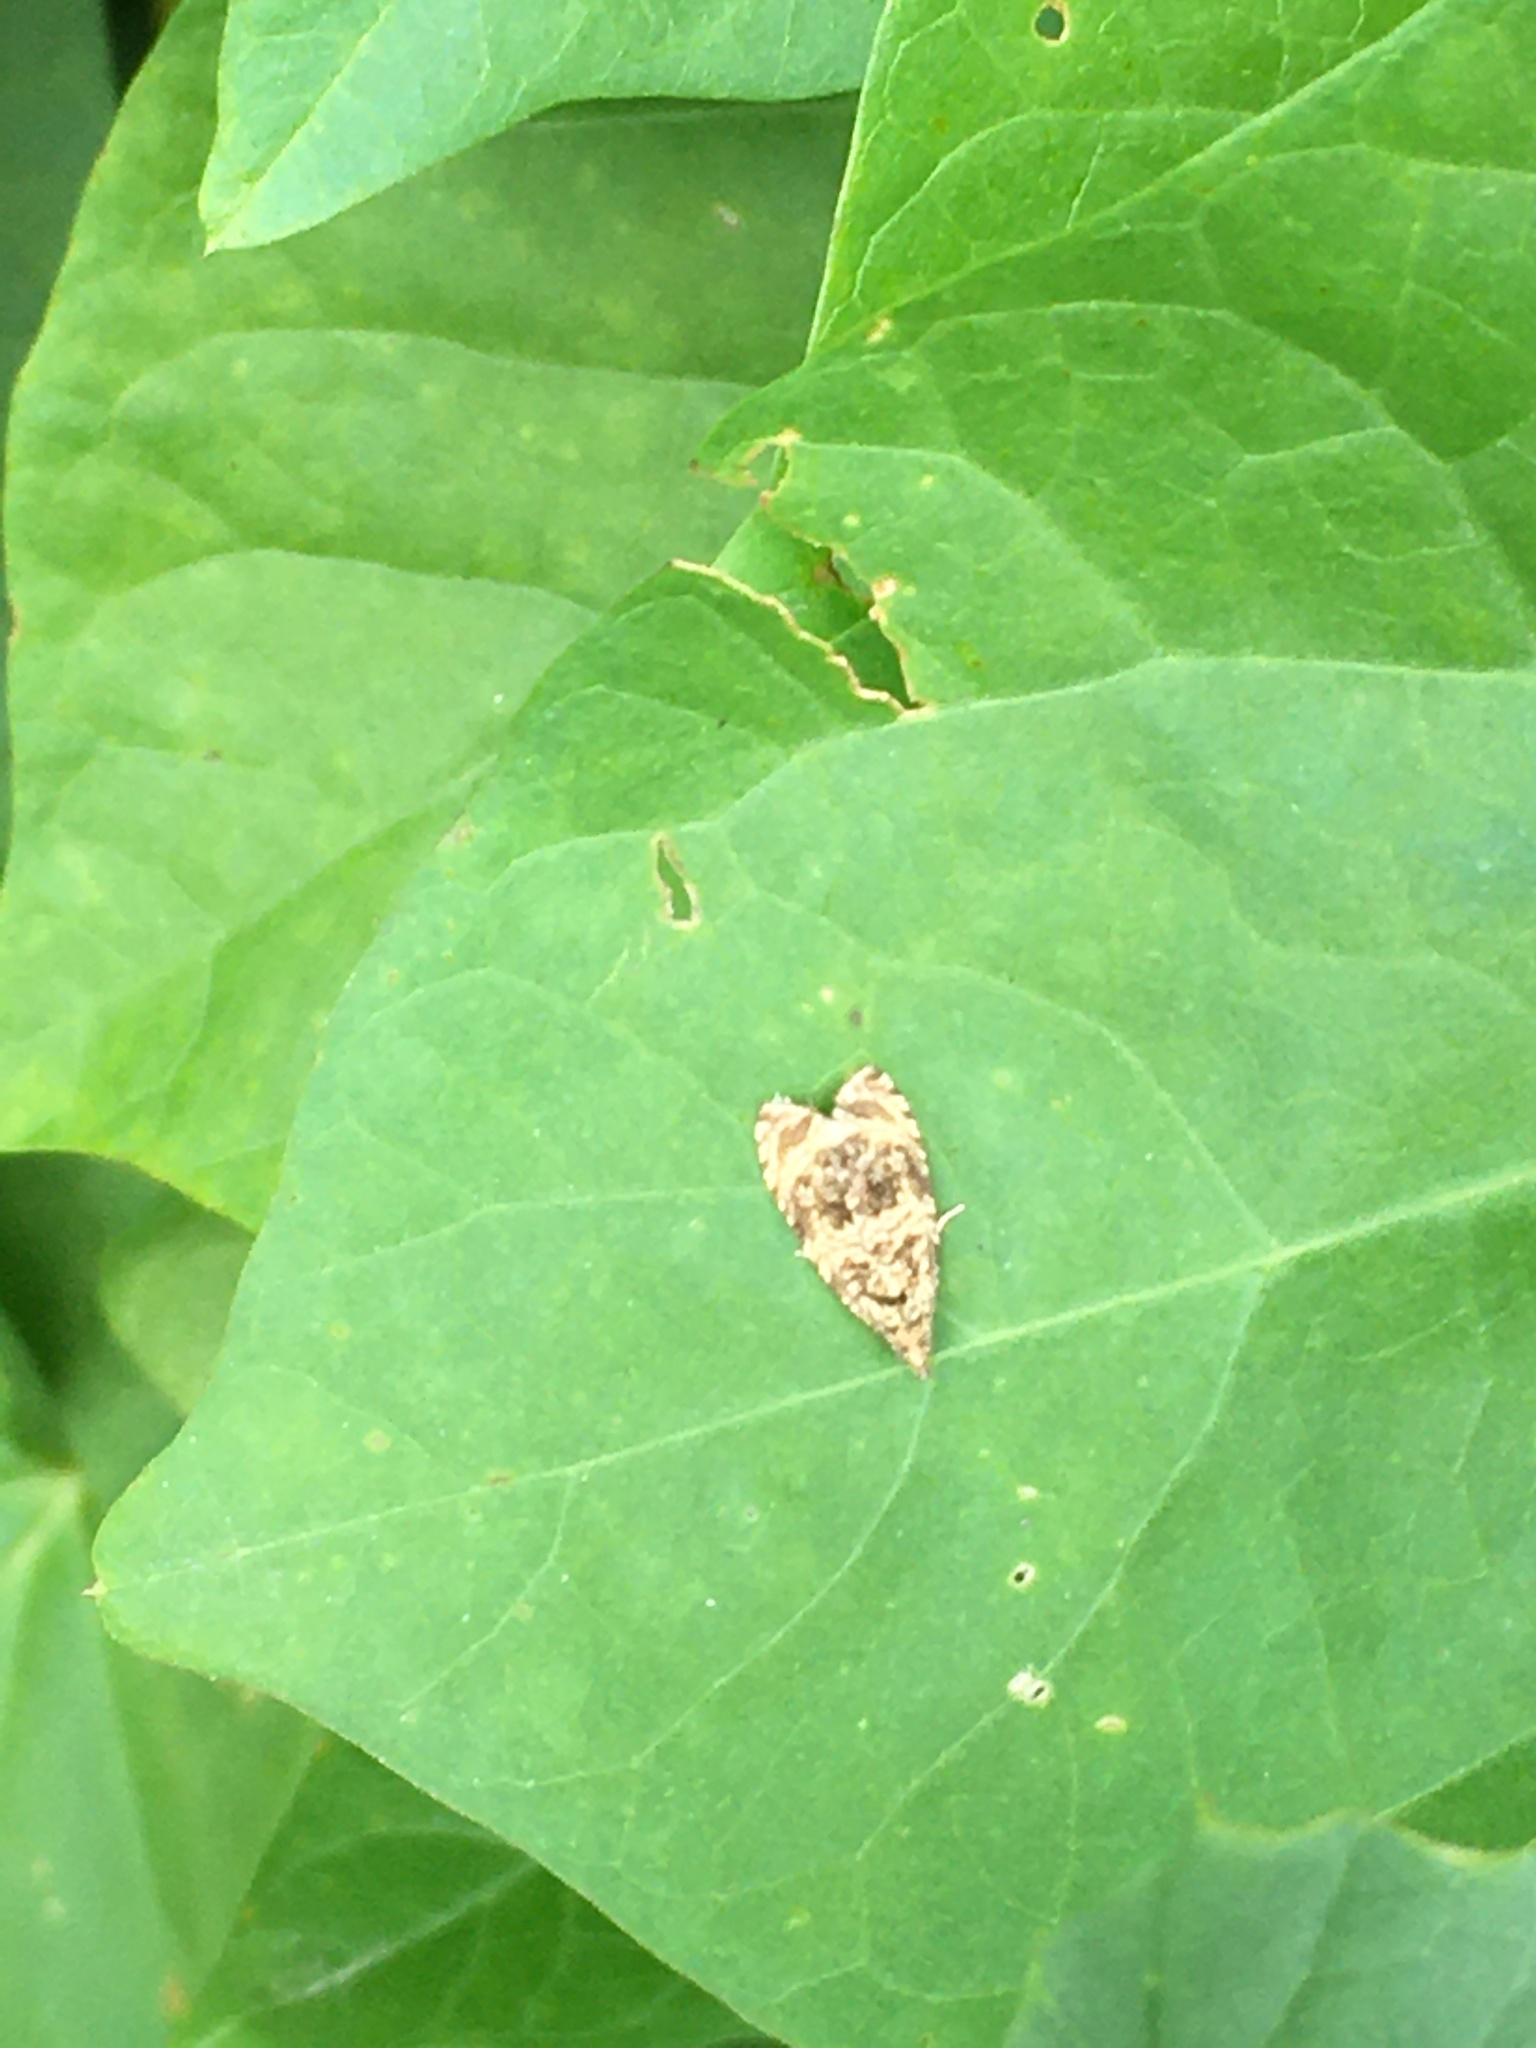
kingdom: Animalia
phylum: Arthropoda
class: Insecta
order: Lepidoptera
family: Tortricidae
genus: Syricoris
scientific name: Syricoris lacunana
